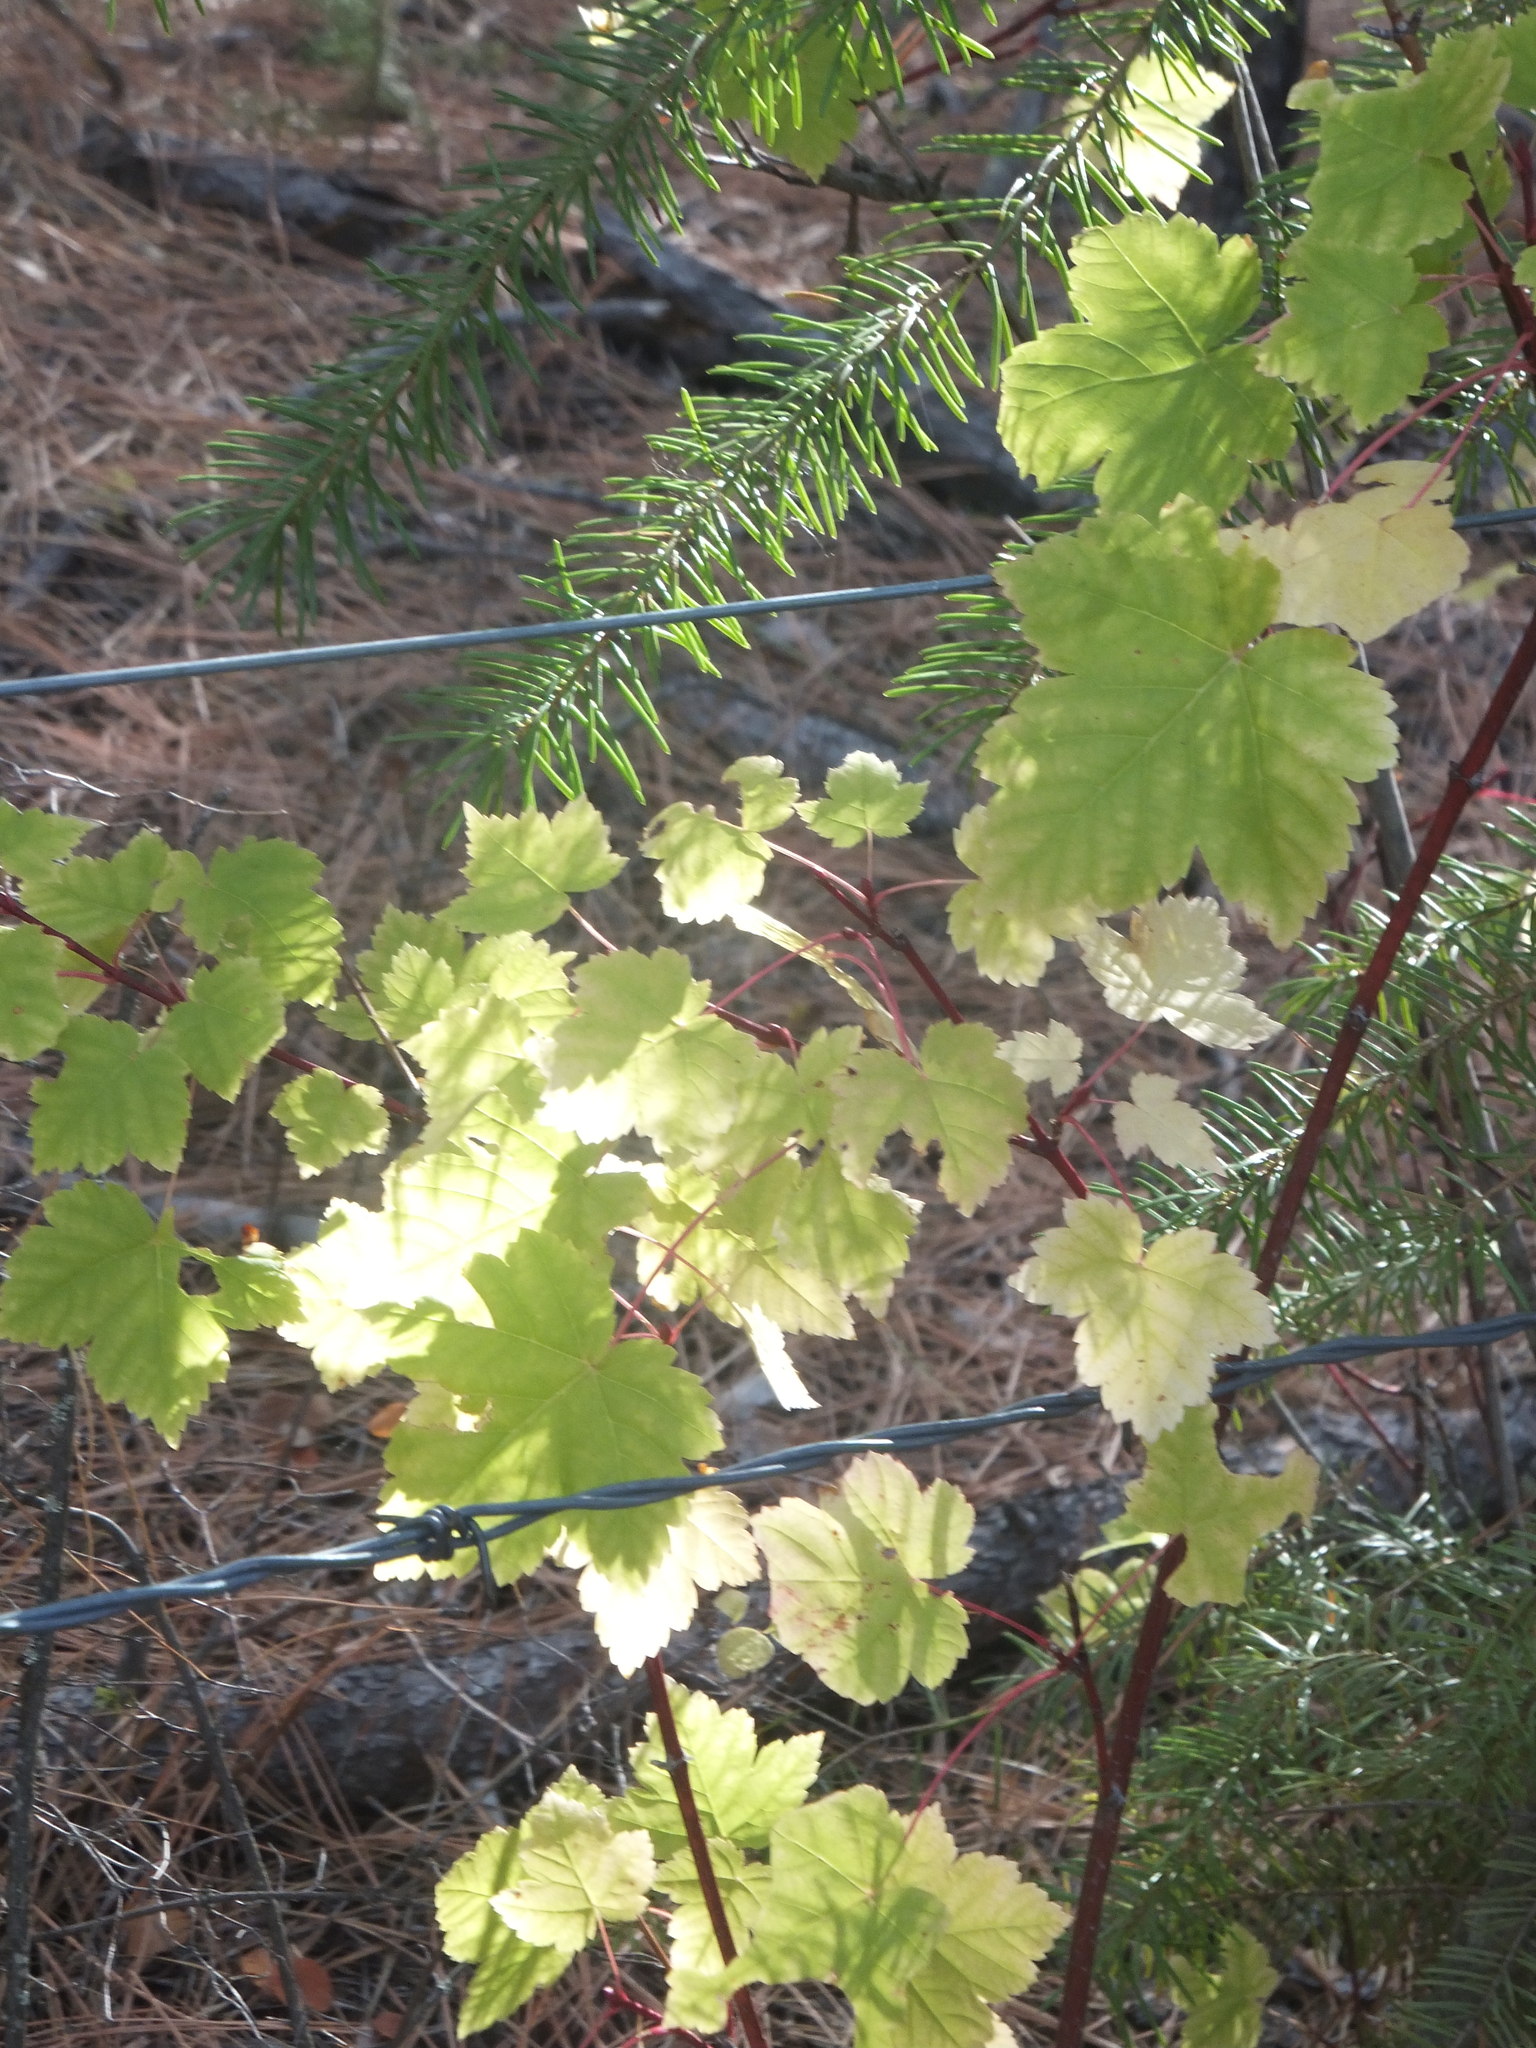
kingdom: Plantae
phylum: Tracheophyta
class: Magnoliopsida
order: Sapindales
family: Sapindaceae
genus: Acer
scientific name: Acer glabrum
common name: Rocky mountain maple
